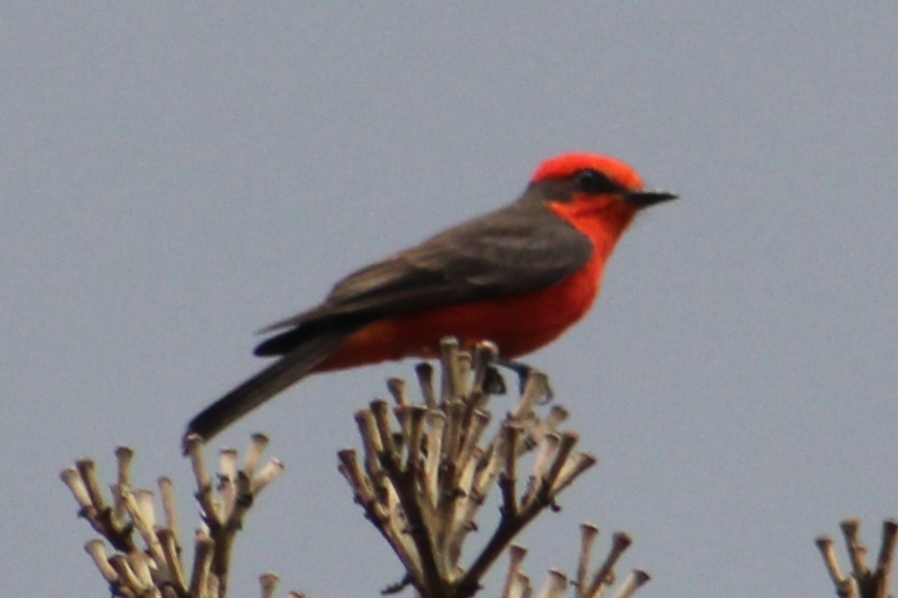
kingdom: Animalia
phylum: Chordata
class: Aves
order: Passeriformes
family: Tyrannidae
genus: Pyrocephalus
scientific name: Pyrocephalus rubinus
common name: Vermilion flycatcher
